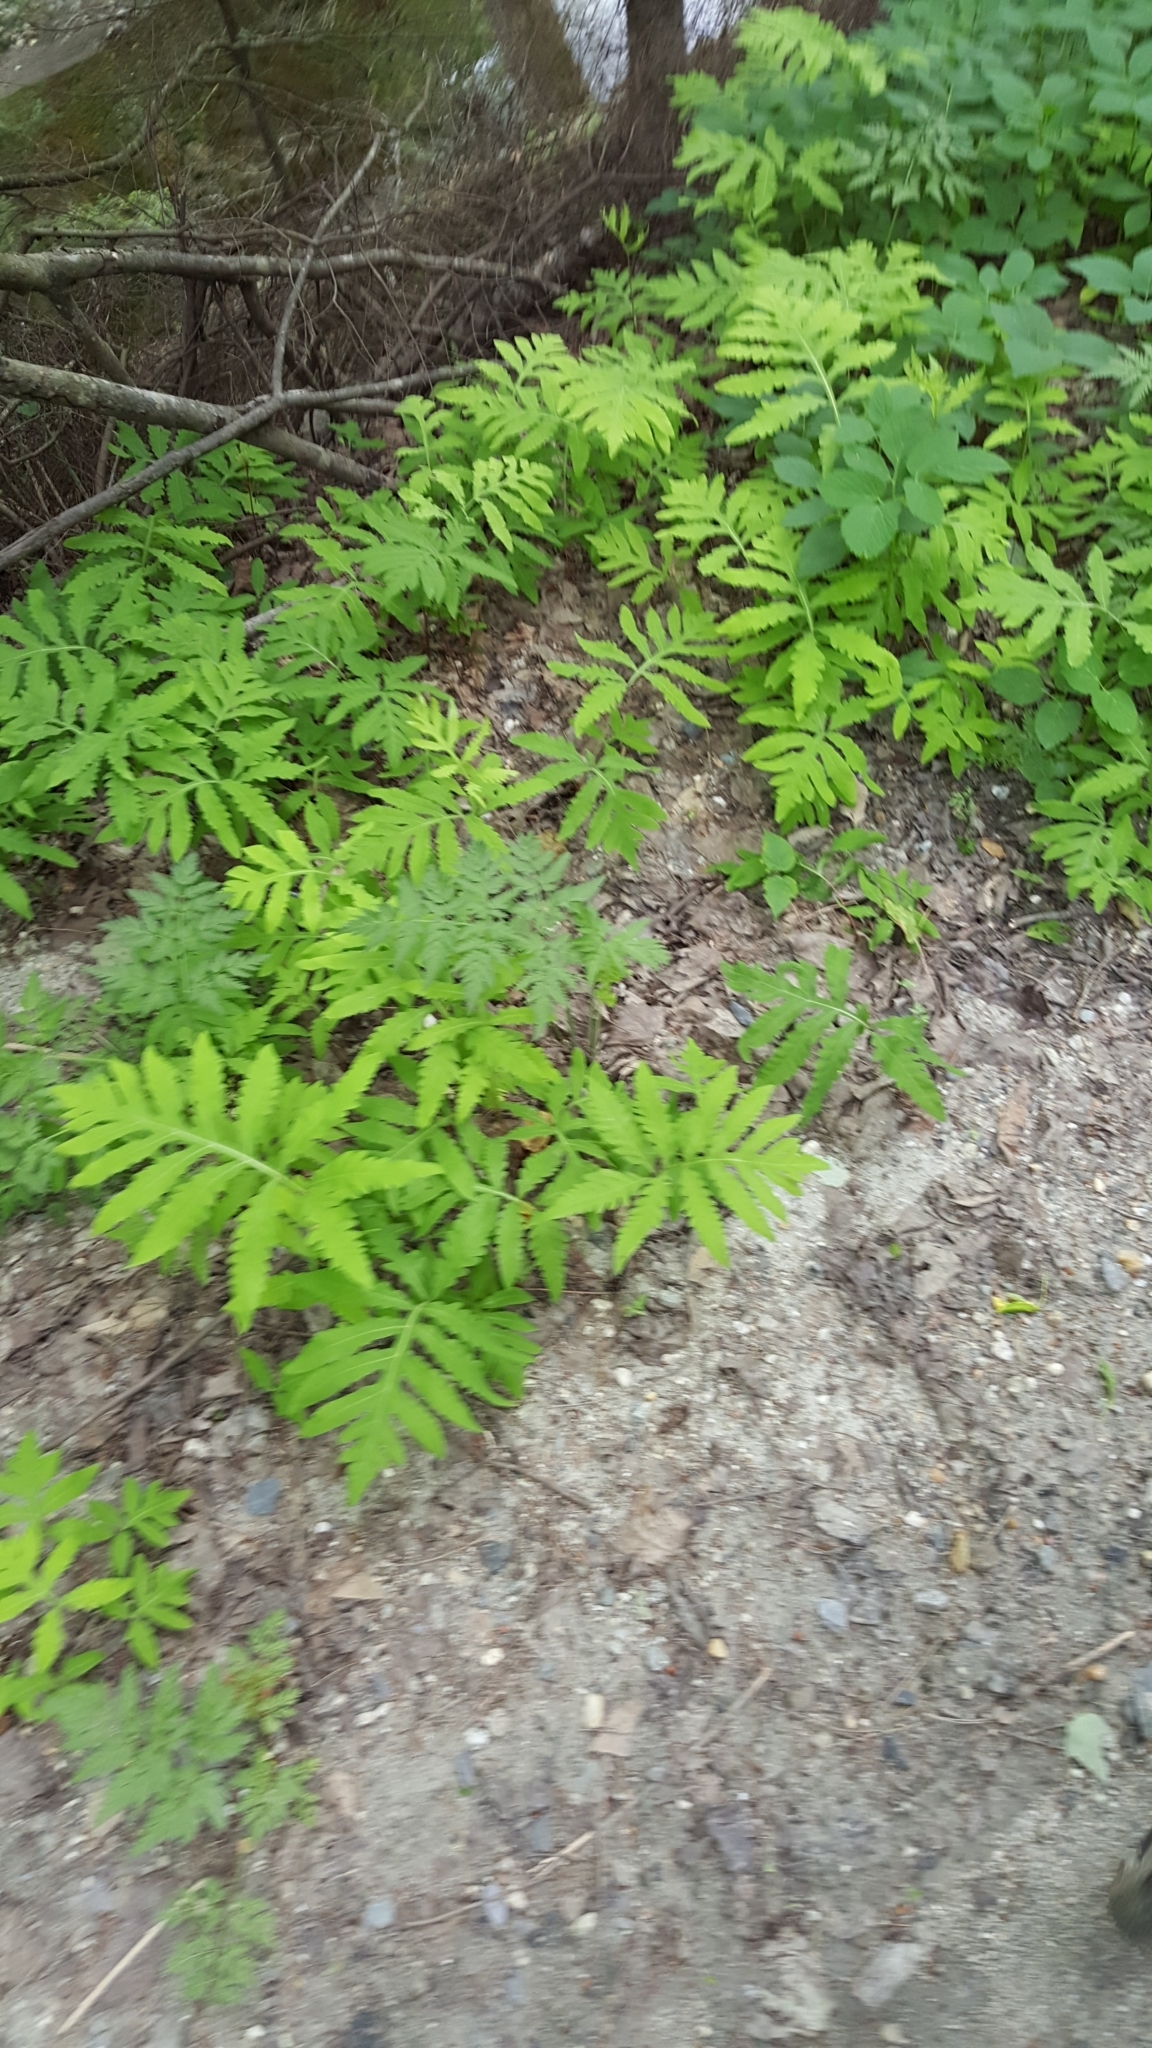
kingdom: Plantae
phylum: Tracheophyta
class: Polypodiopsida
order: Polypodiales
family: Onocleaceae
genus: Onoclea
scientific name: Onoclea sensibilis
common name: Sensitive fern
